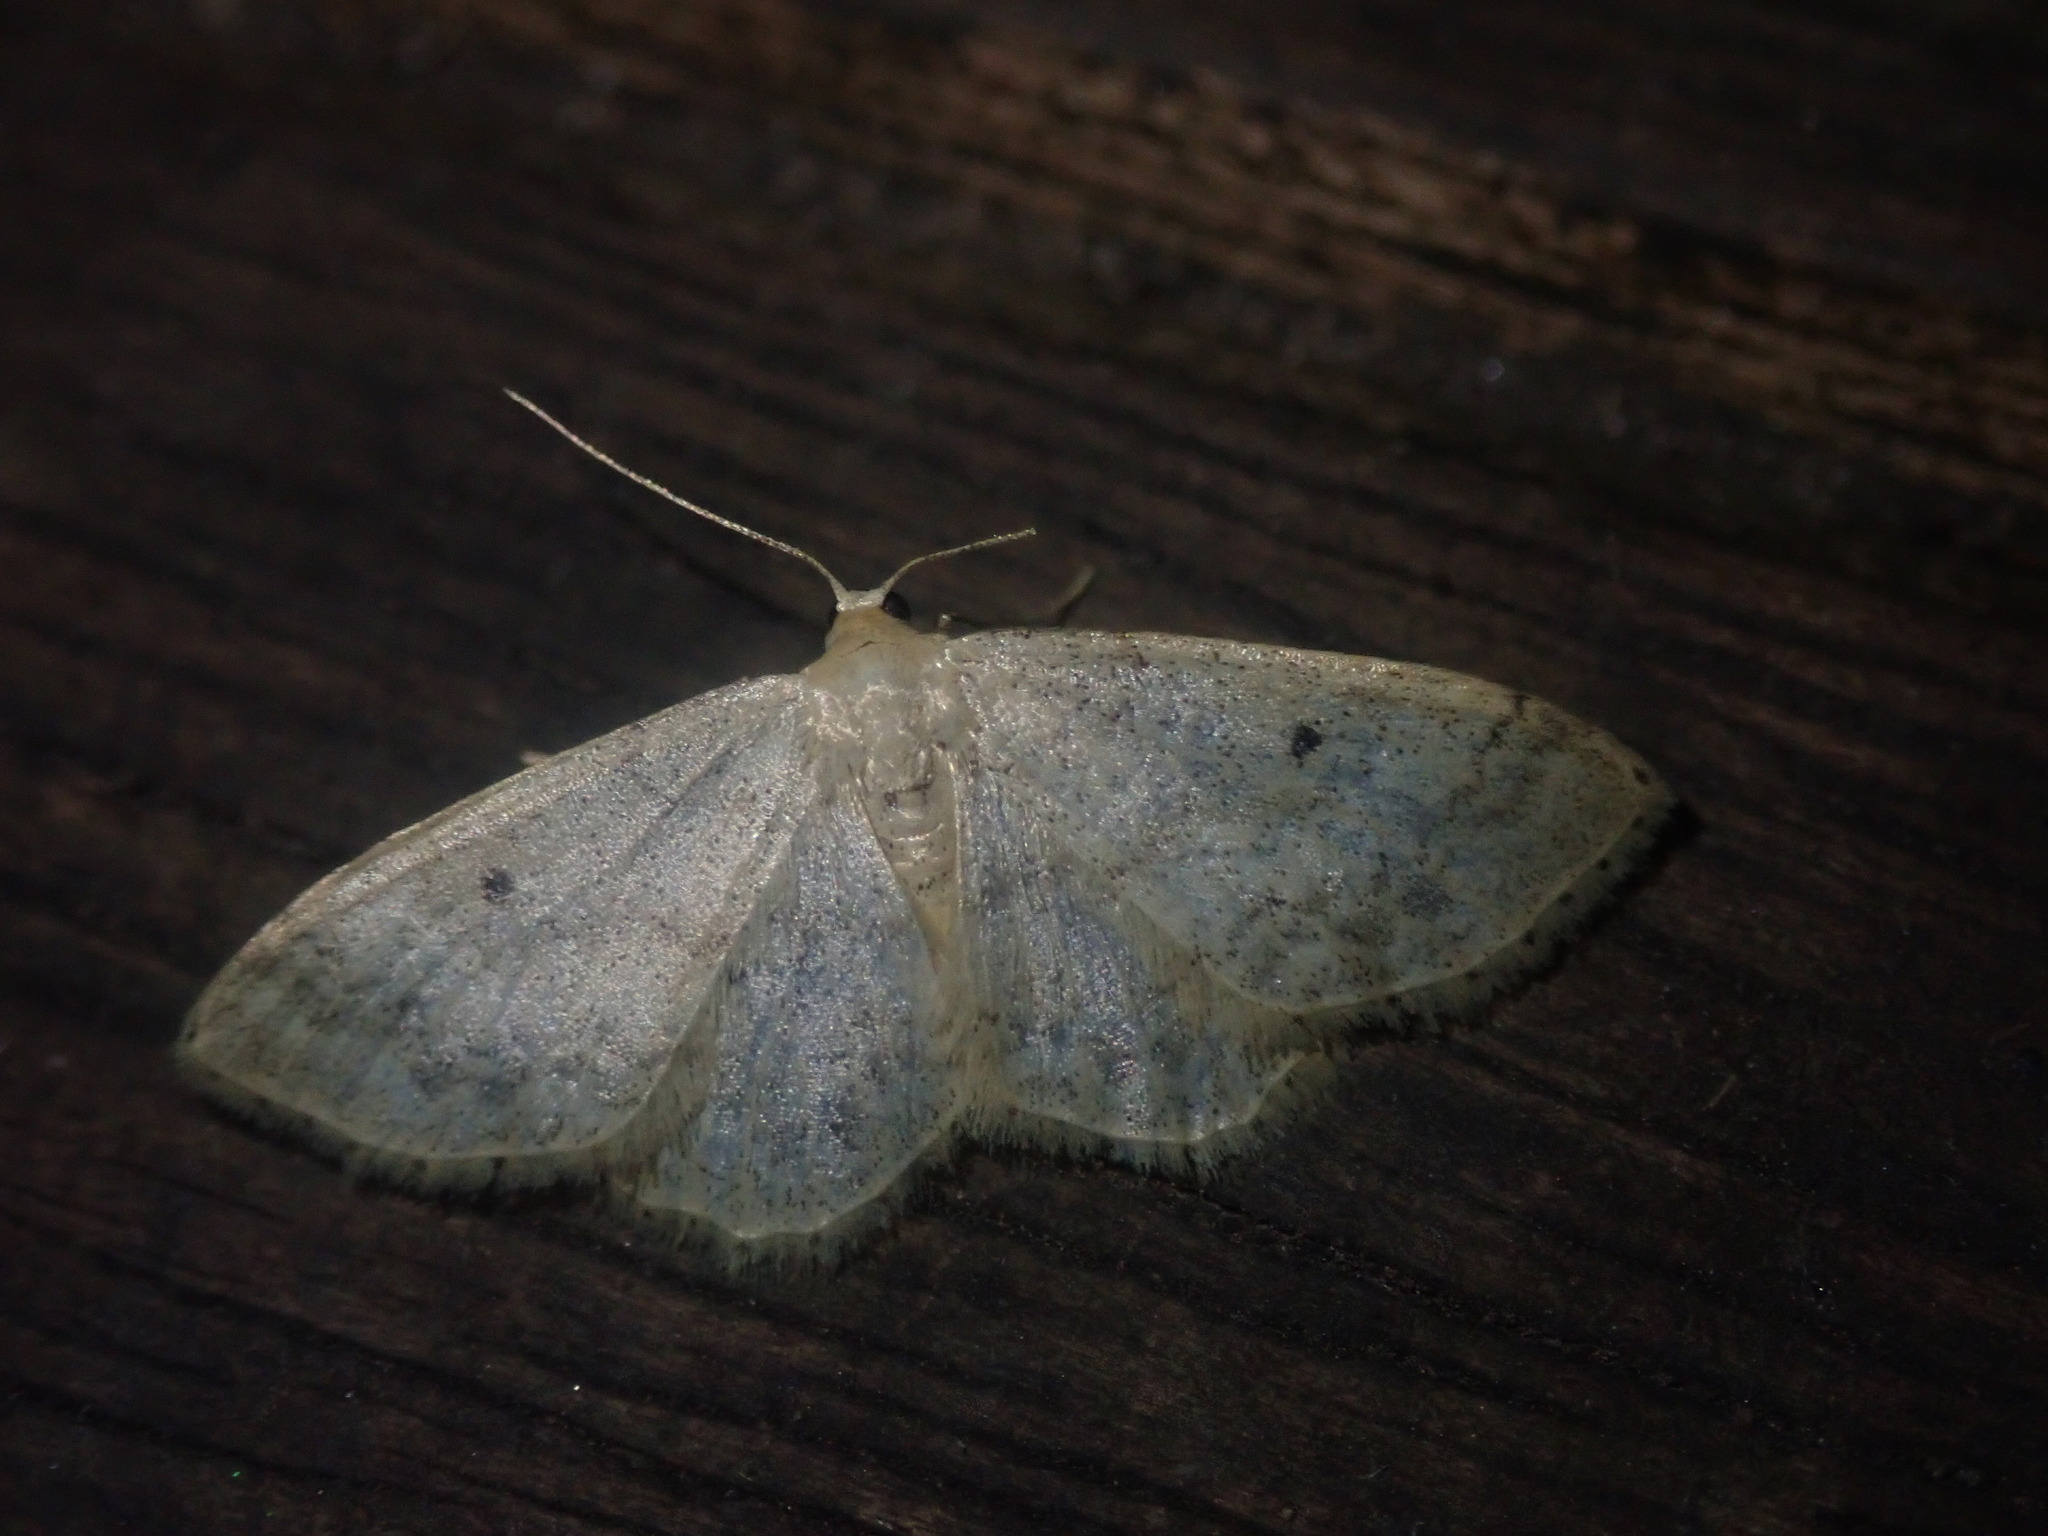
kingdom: Animalia
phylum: Arthropoda
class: Insecta
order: Lepidoptera
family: Geometridae
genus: Idaea
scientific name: Idaea biselata
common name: Small fan-footed wave
